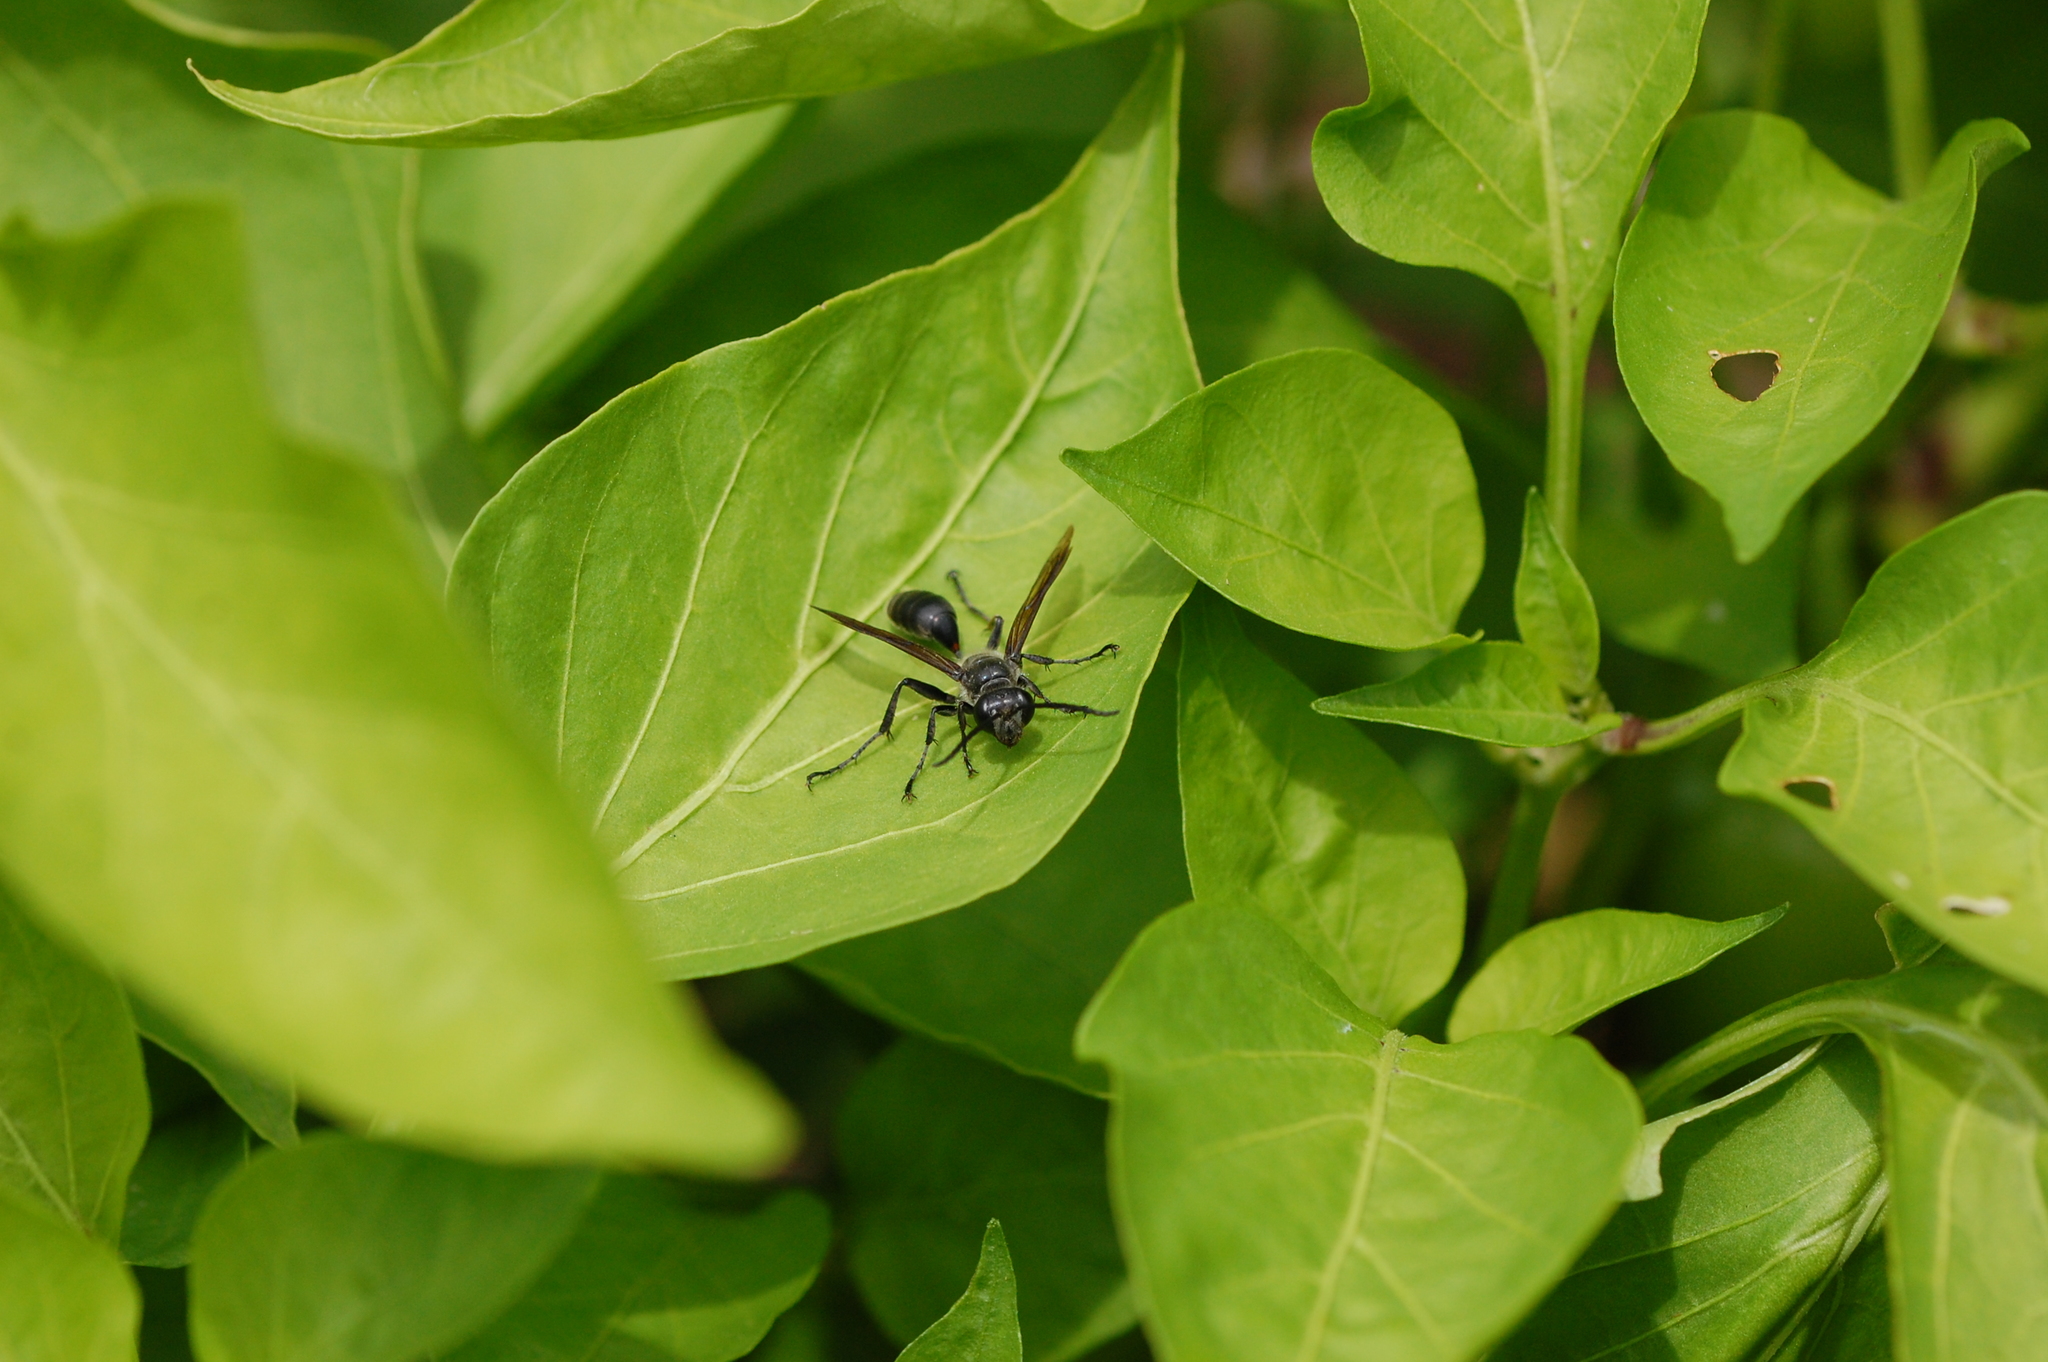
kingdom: Animalia
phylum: Arthropoda
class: Insecta
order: Hymenoptera
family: Sphecidae
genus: Isodontia
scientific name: Isodontia mexicana
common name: Mud dauber
